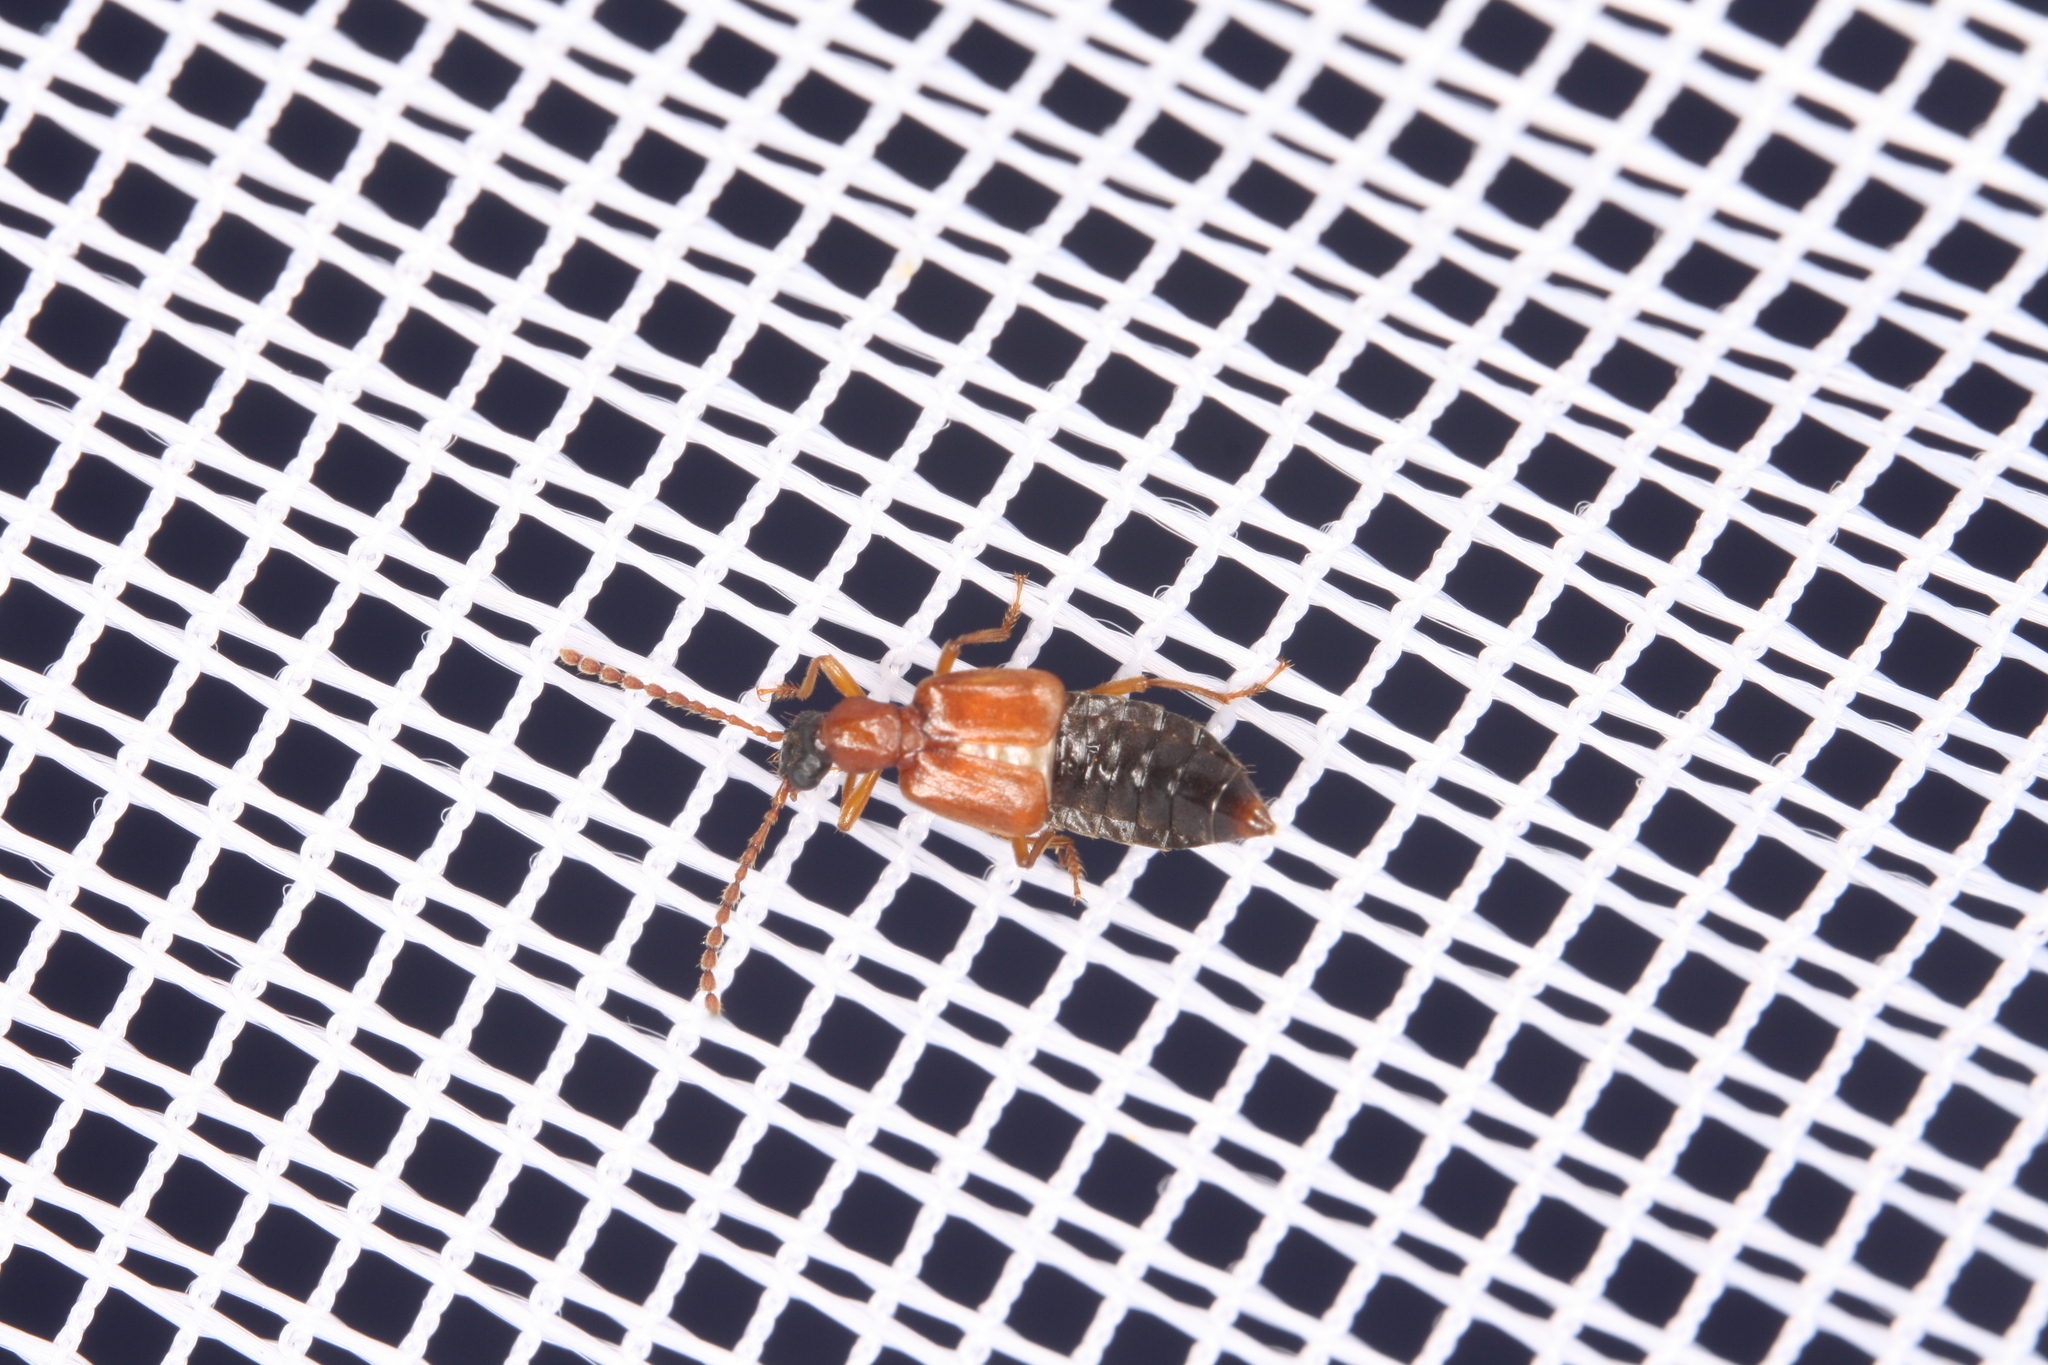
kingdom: Animalia
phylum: Arthropoda
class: Insecta
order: Coleoptera
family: Staphylinidae
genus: Deleaster
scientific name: Deleaster dichrous
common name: Rove beetle
